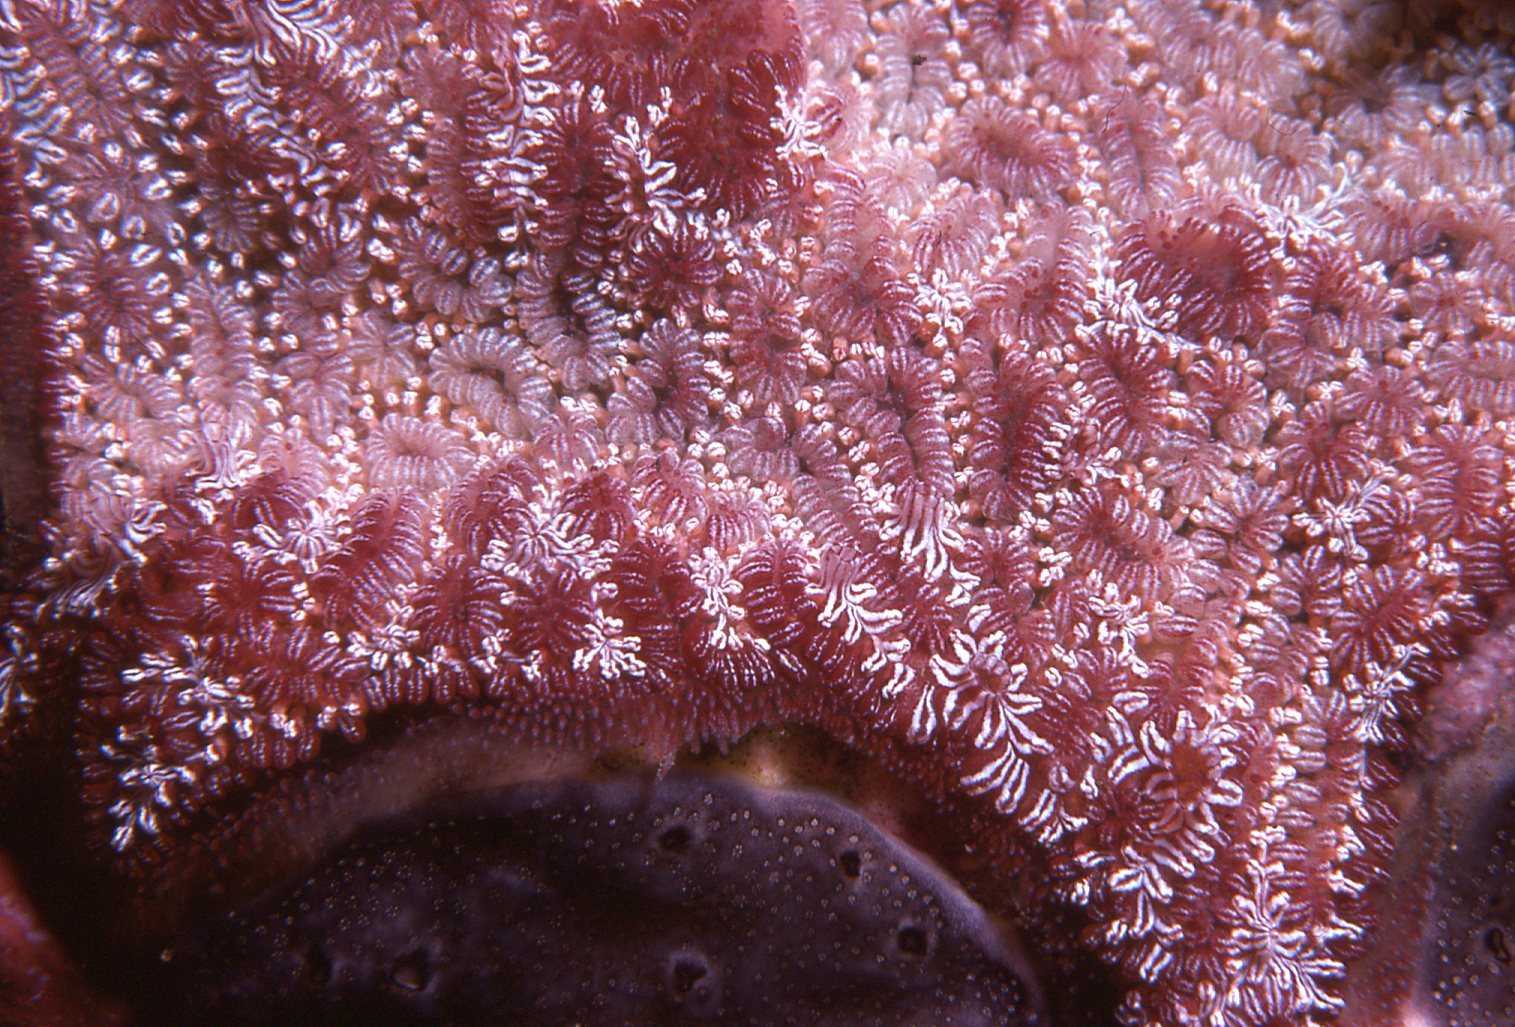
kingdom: Animalia
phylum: Chordata
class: Ascidiacea
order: Stolidobranchia
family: Styelidae
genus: Botrylloides
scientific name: Botrylloides leachii
